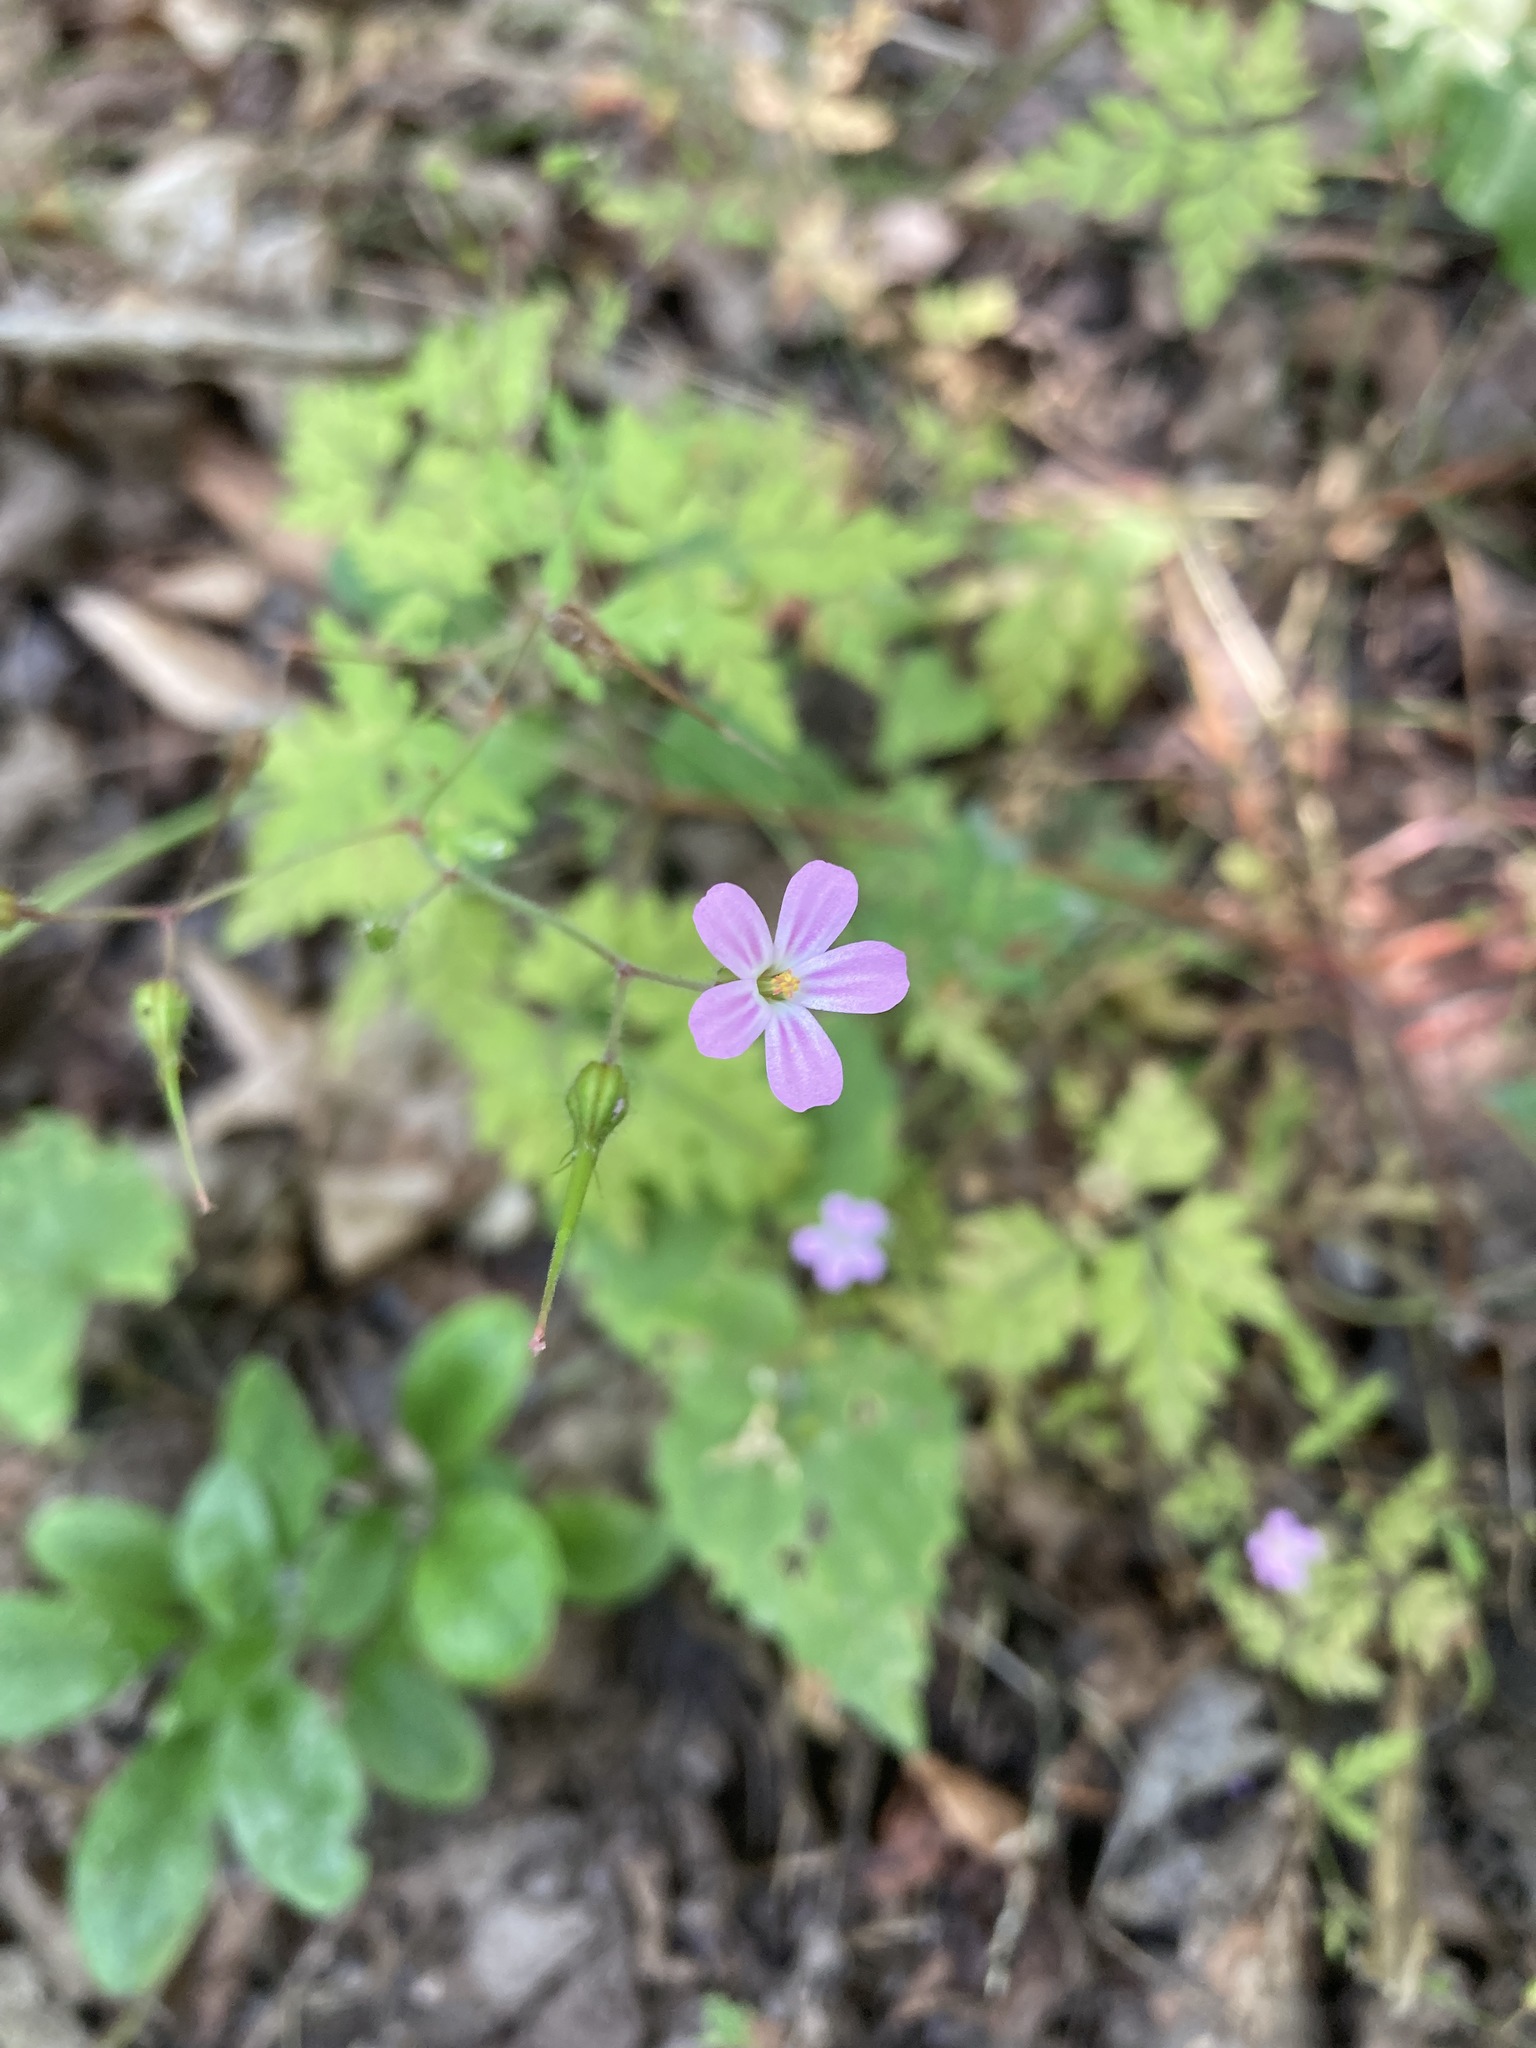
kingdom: Plantae
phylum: Tracheophyta
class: Magnoliopsida
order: Geraniales
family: Geraniaceae
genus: Geranium
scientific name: Geranium robertianum
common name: Herb-robert
